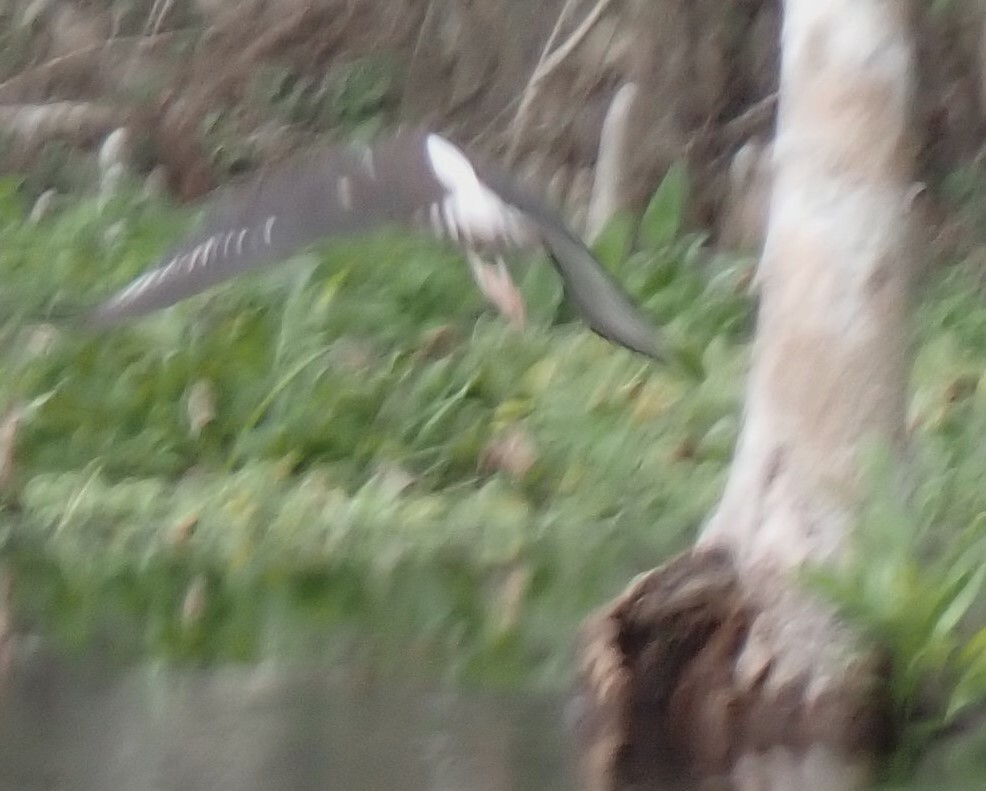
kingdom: Animalia
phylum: Chordata
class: Aves
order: Pelecaniformes
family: Threskiornithidae
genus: Eudocimus
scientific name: Eudocimus albus
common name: White ibis
